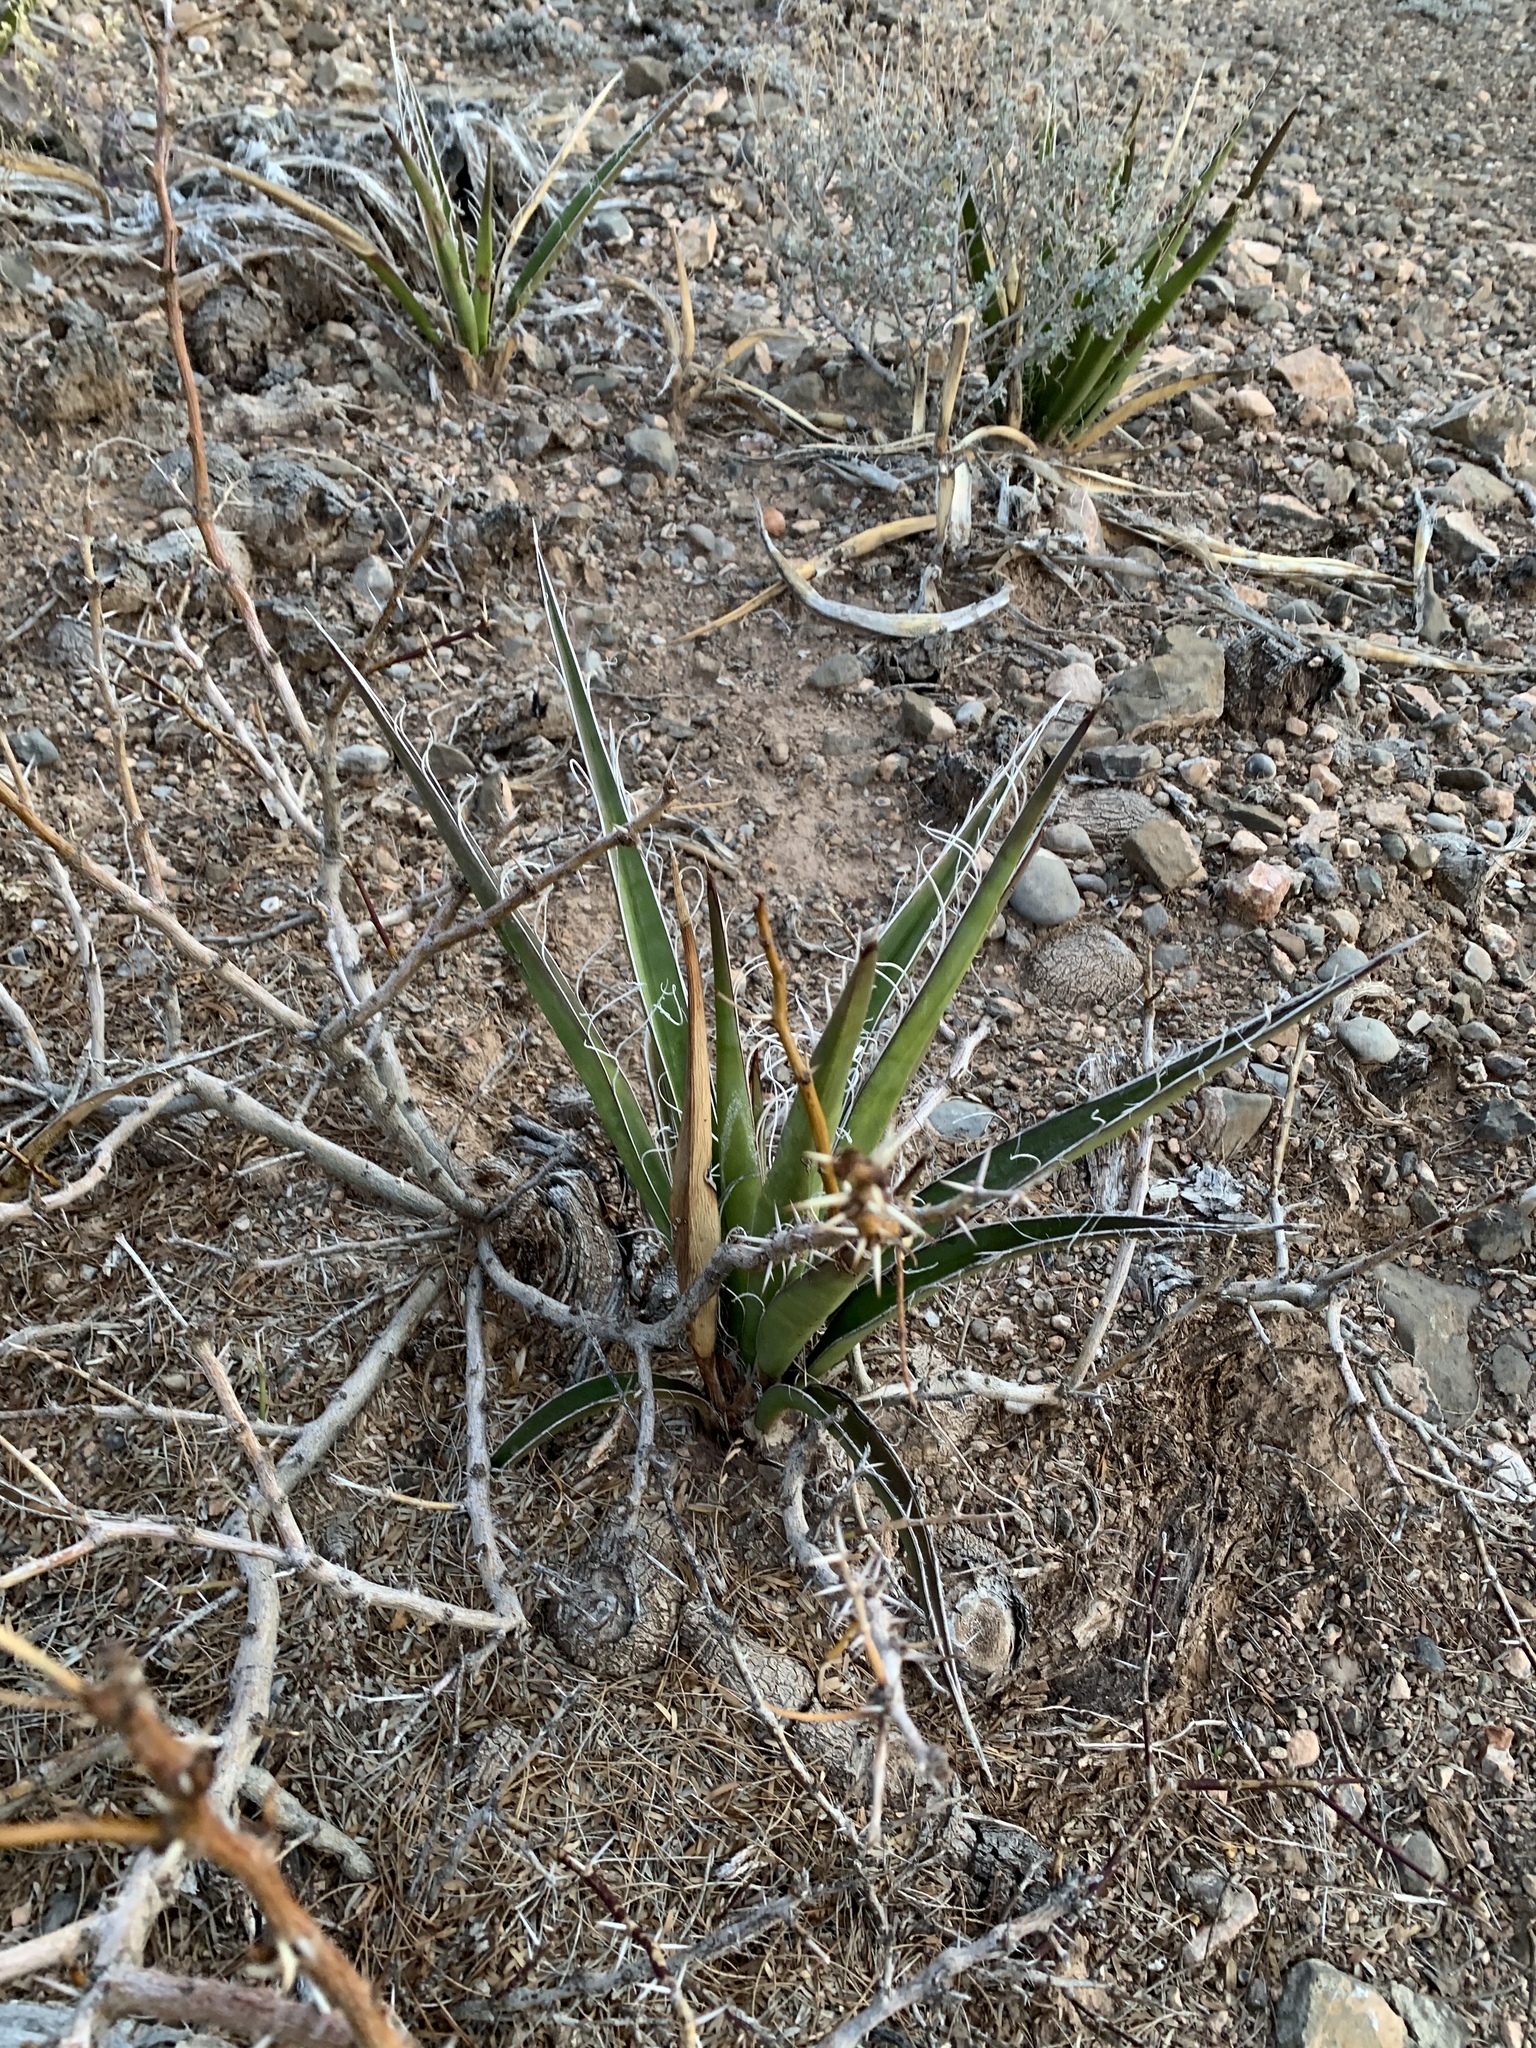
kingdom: Plantae
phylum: Tracheophyta
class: Liliopsida
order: Asparagales
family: Asparagaceae
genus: Yucca
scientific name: Yucca baccata
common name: Banana yucca
